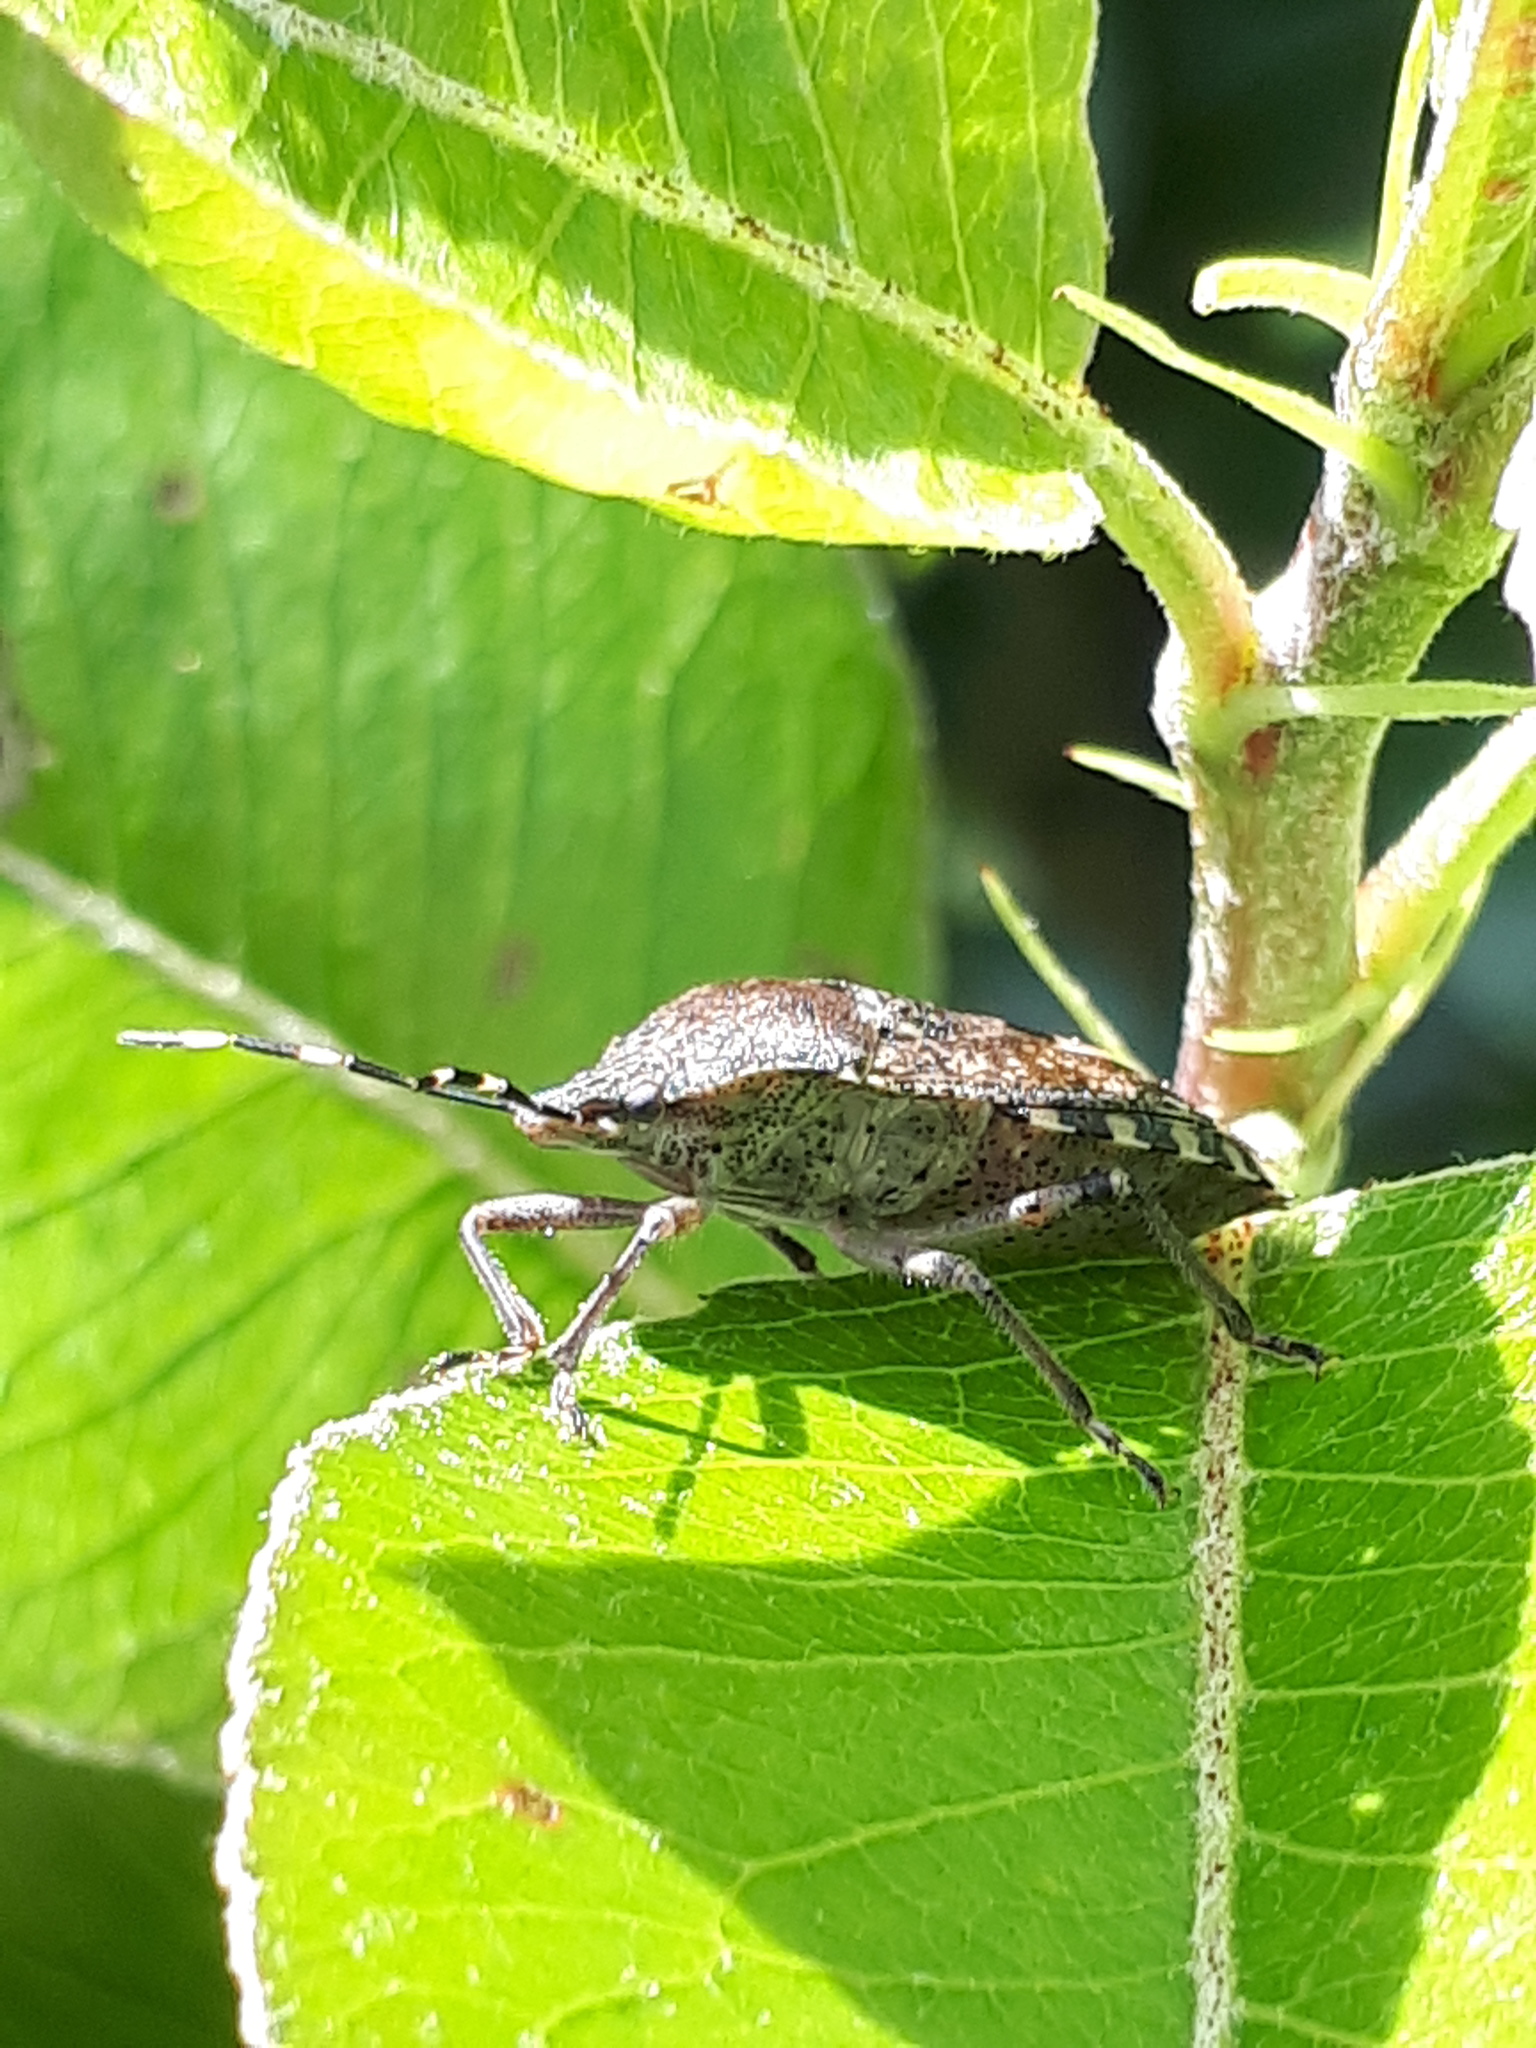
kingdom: Animalia
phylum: Arthropoda
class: Insecta
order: Hemiptera
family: Pentatomidae
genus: Rhaphigaster
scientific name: Rhaphigaster nebulosa
